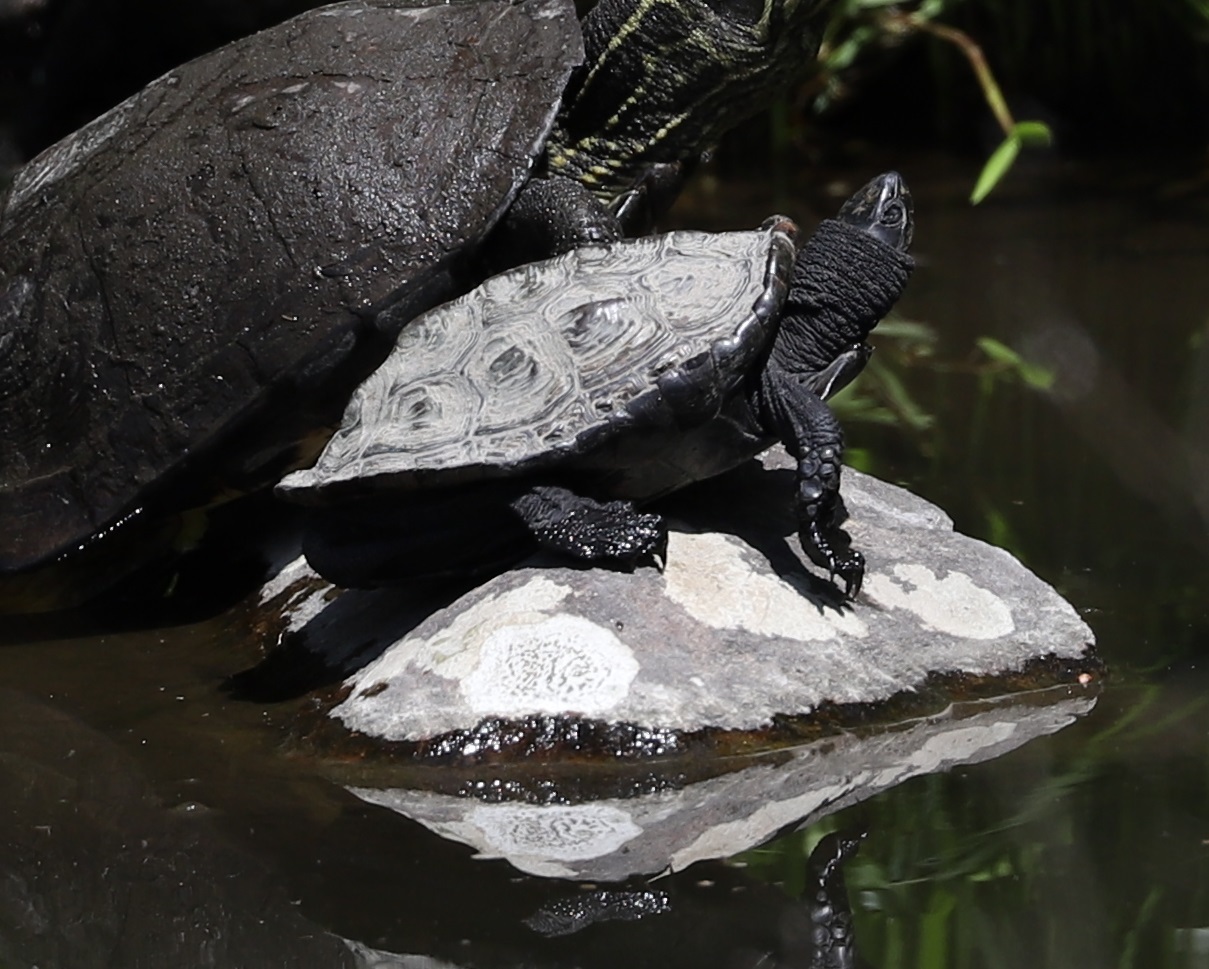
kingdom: Animalia
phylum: Chordata
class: Testudines
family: Geoemydidae
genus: Mauremys
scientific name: Mauremys reevesii
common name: Chinese pond turtle
